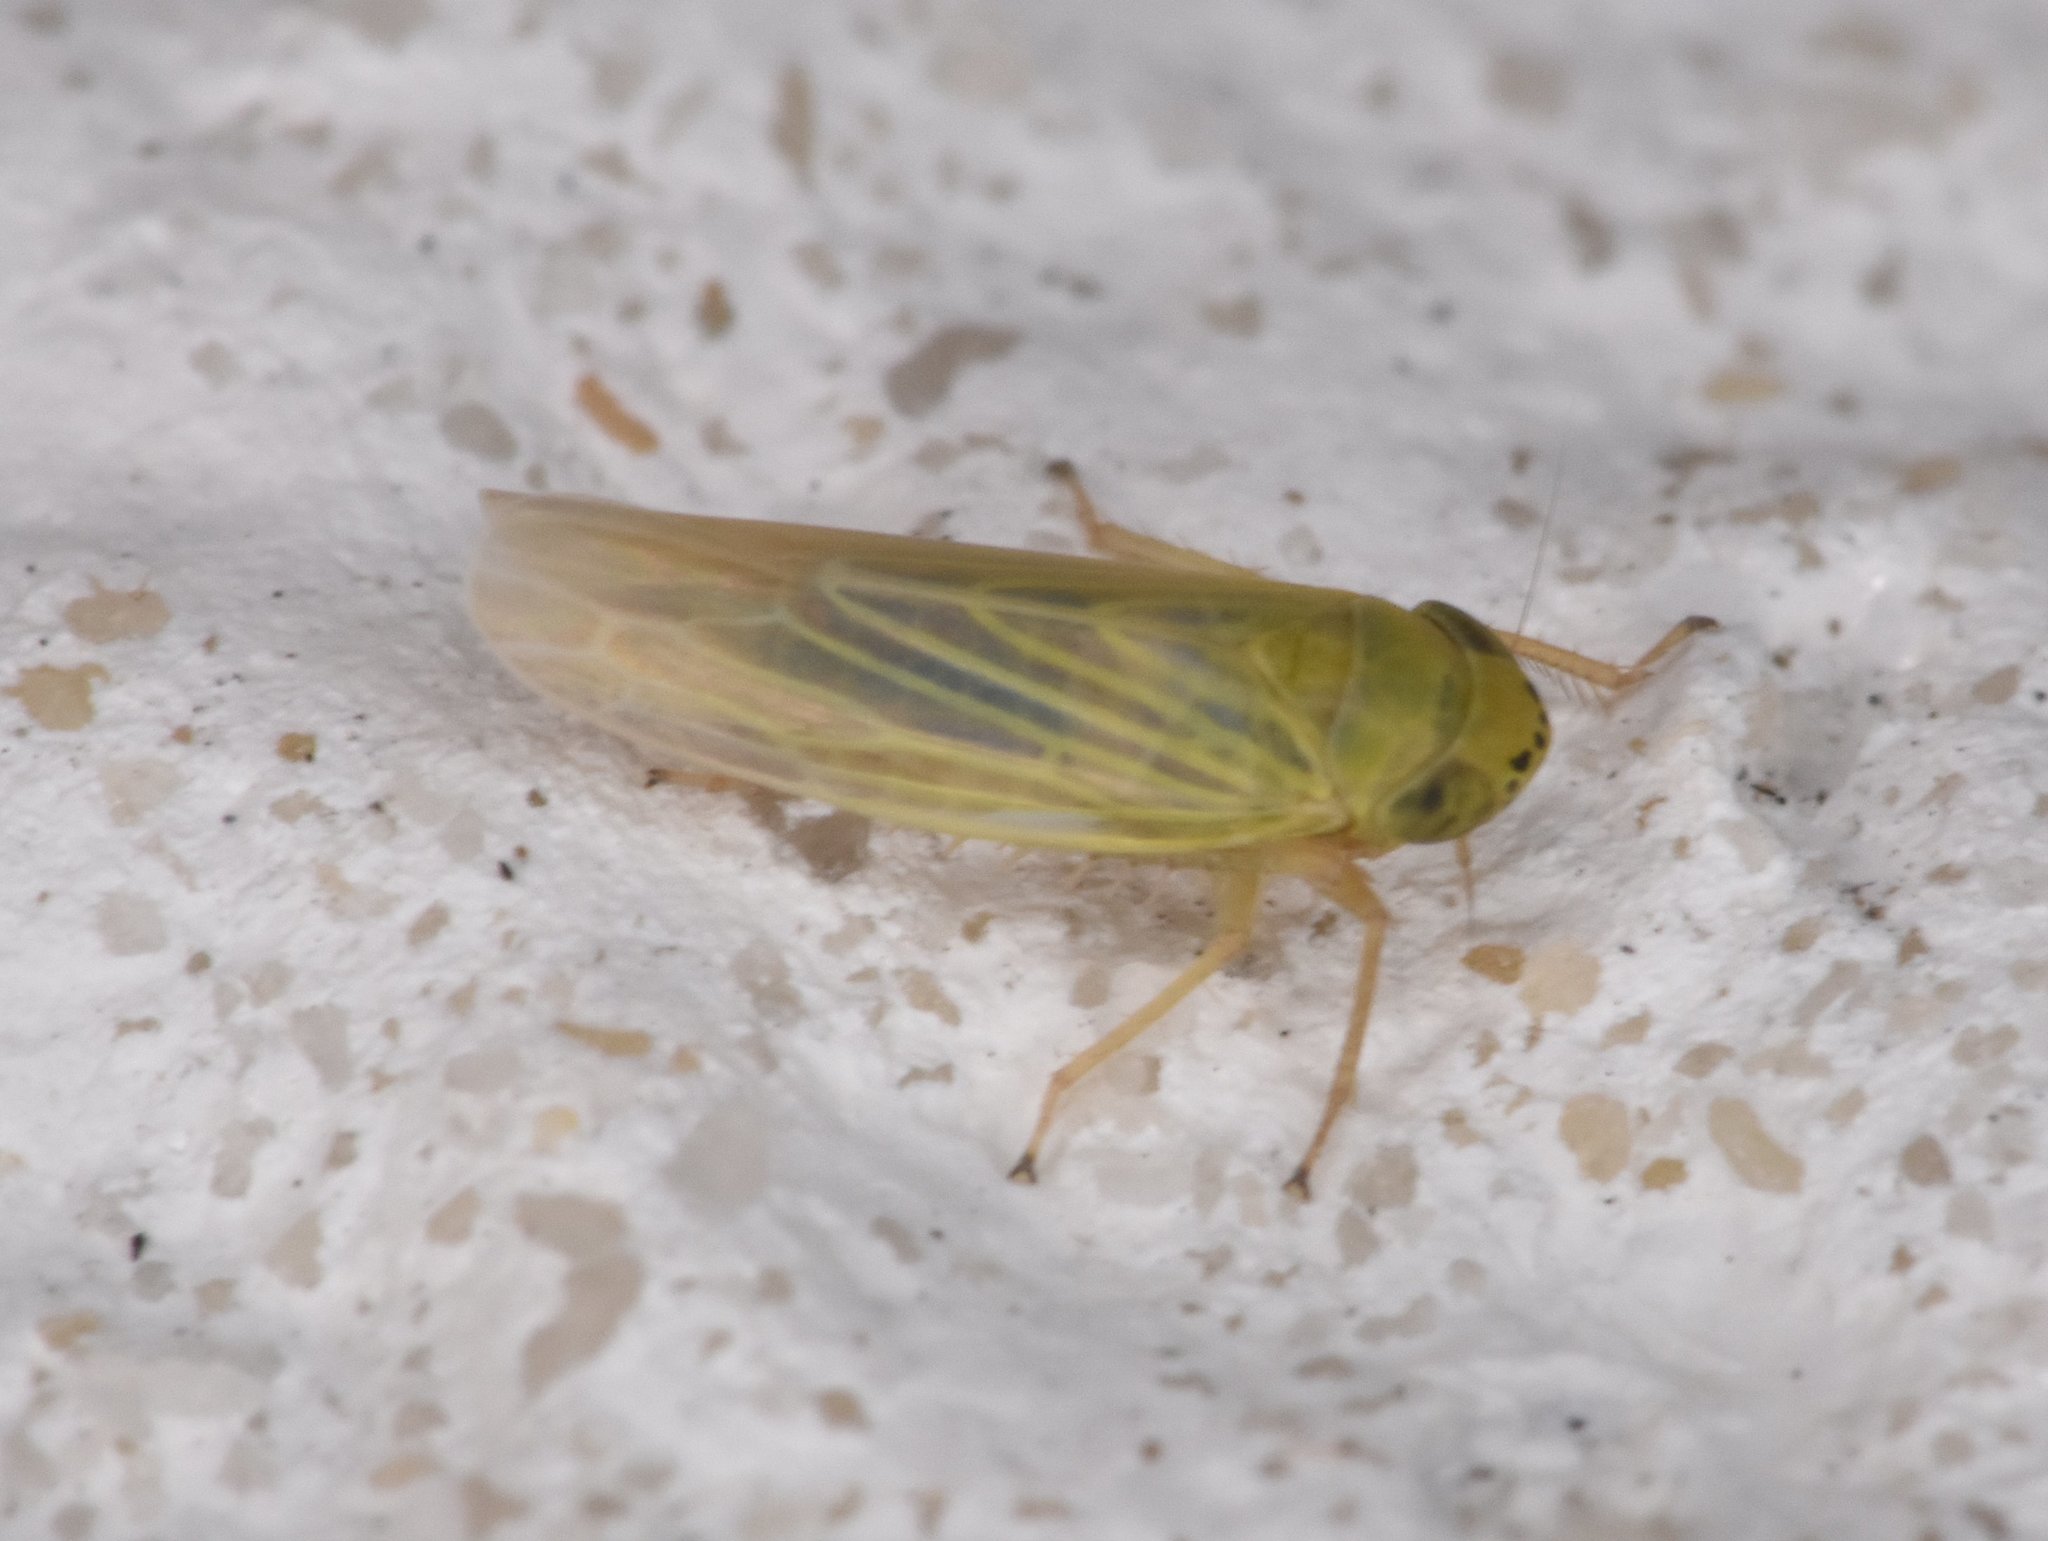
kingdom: Animalia
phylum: Arthropoda
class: Insecta
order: Hemiptera
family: Cicadellidae
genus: Graminella
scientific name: Graminella nigrifrons
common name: Blackfaced leafhopper
